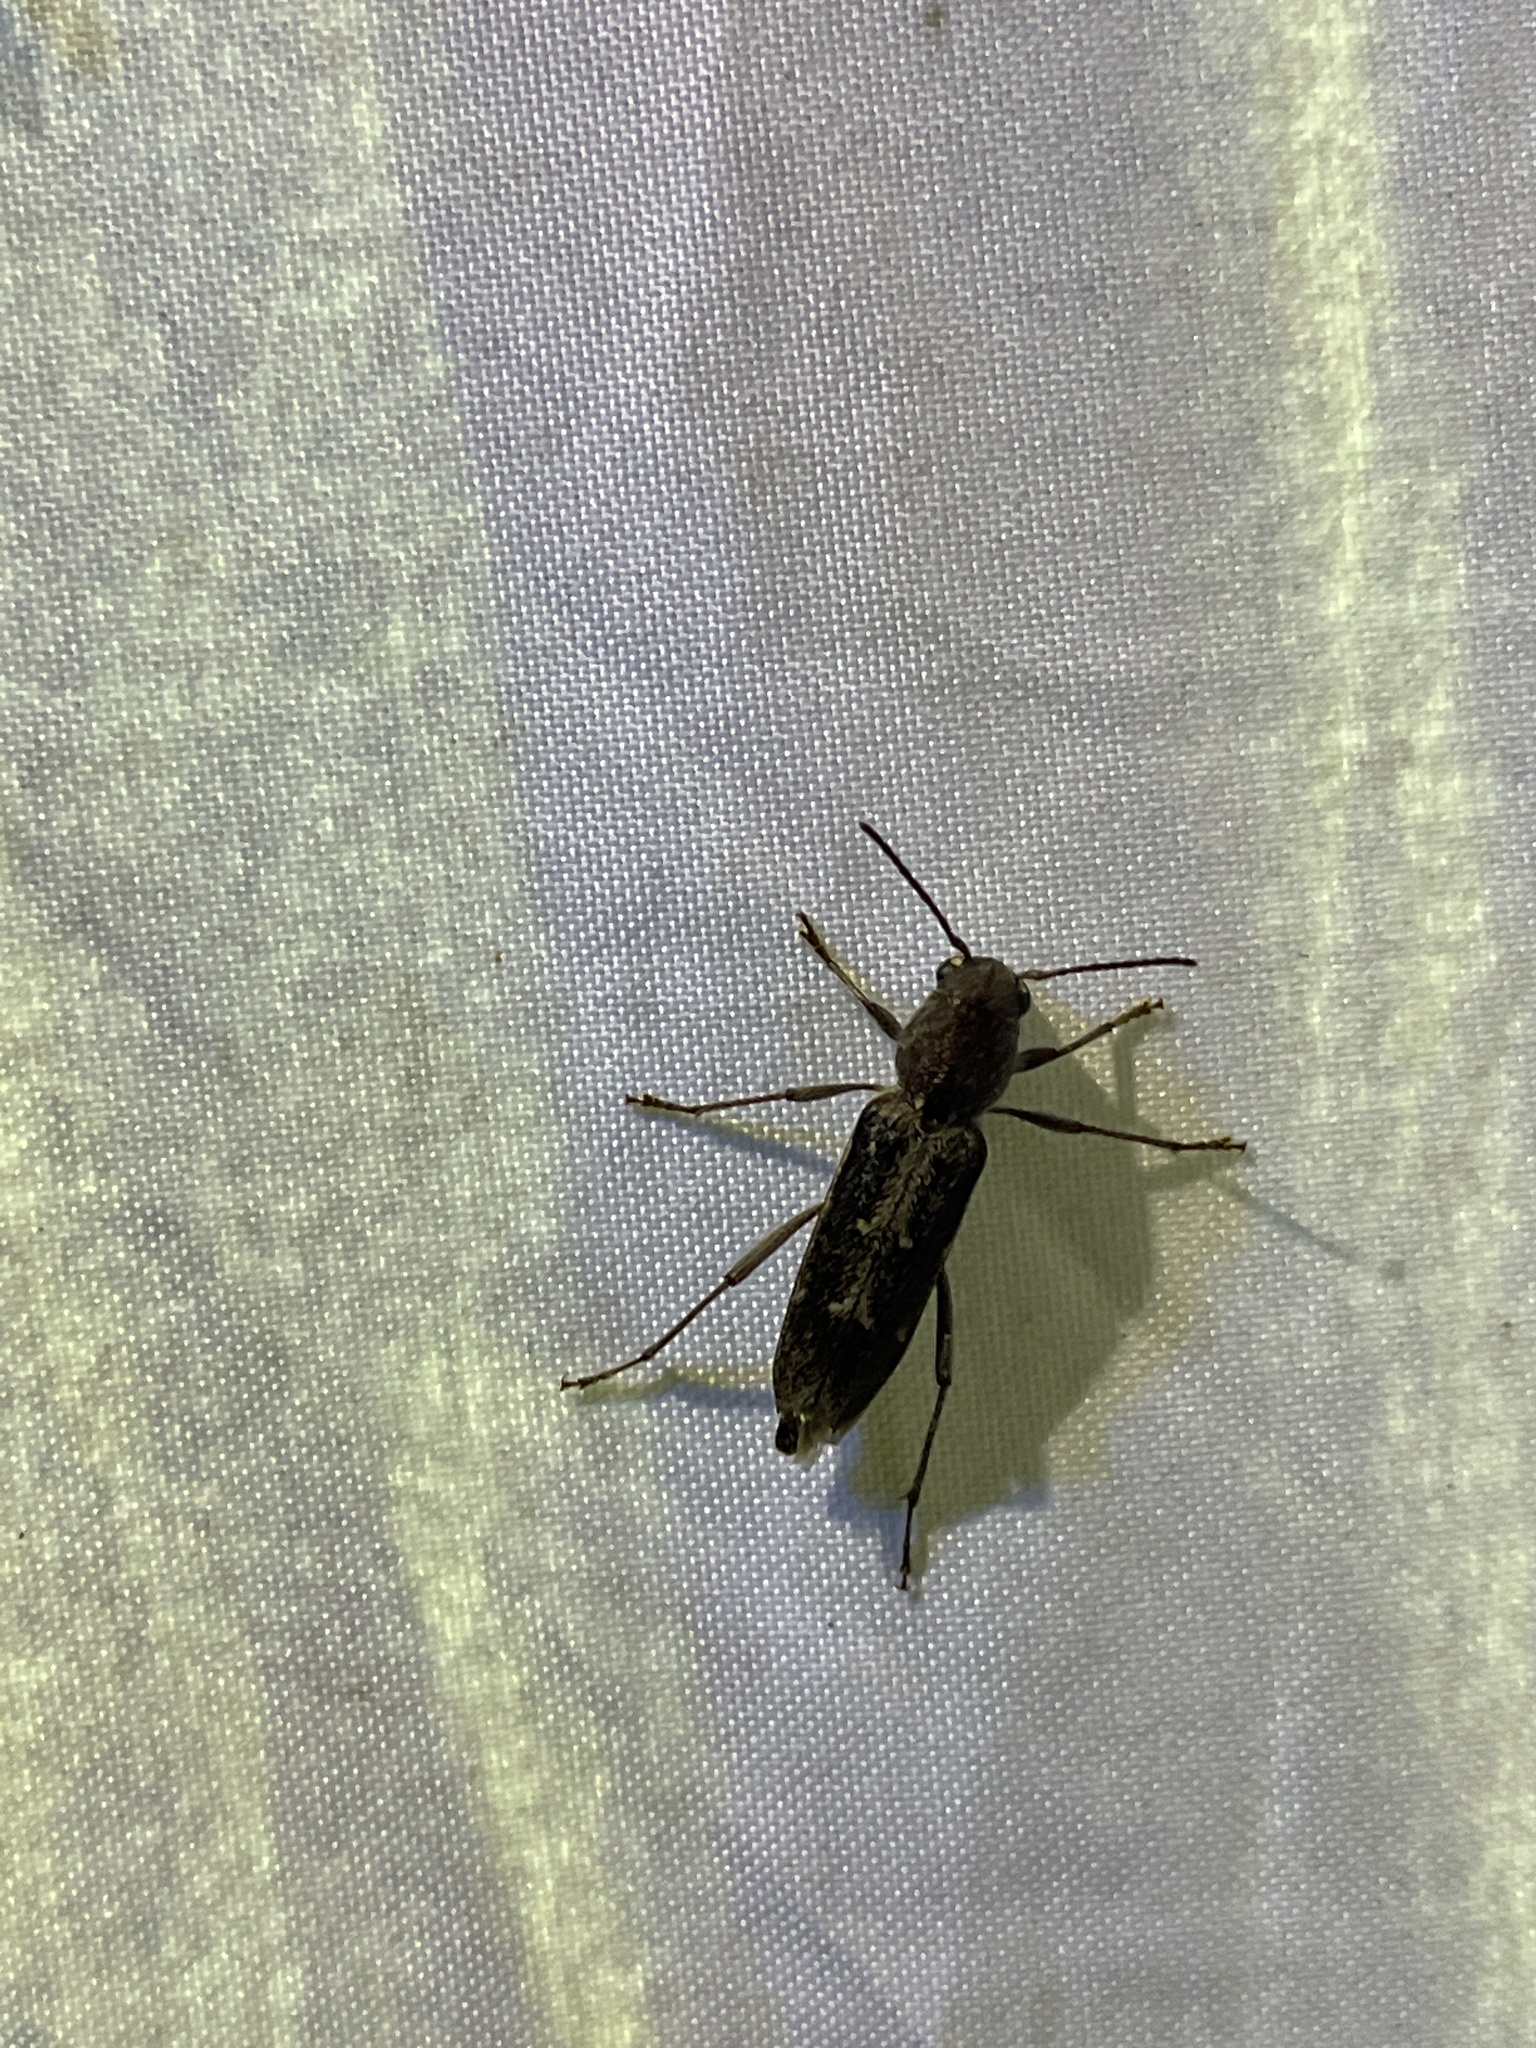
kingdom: Animalia
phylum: Arthropoda
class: Insecta
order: Coleoptera
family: Cerambycidae
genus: Xylotrechus
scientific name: Xylotrechus sagittatus
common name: Arrowhead borer
